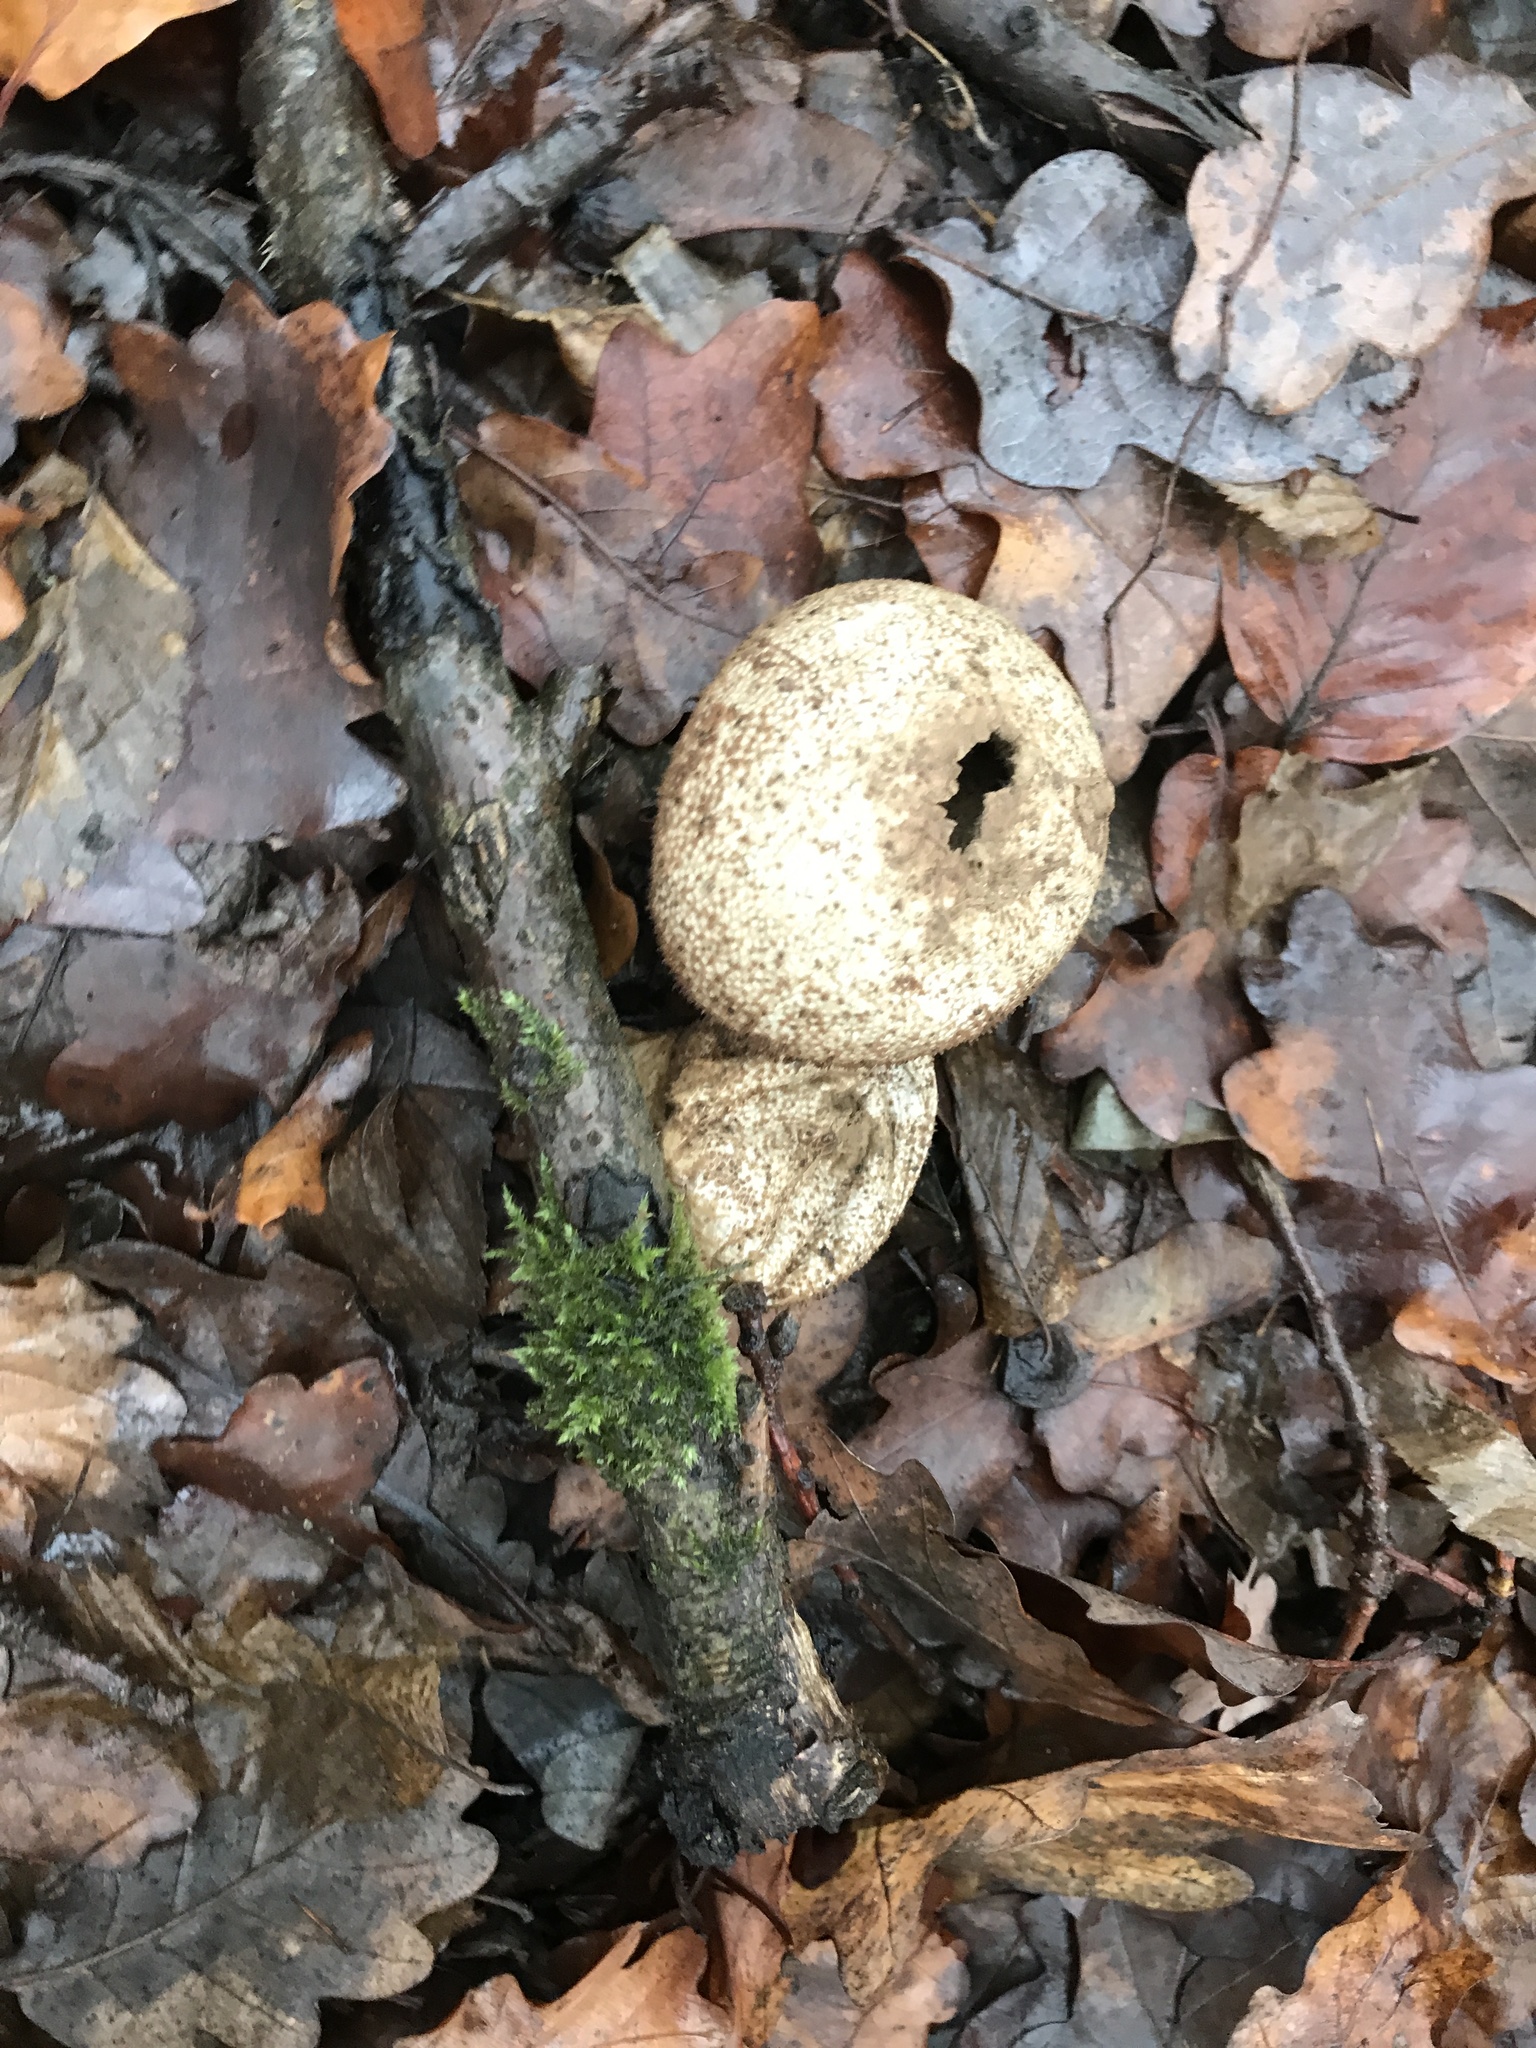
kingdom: Fungi
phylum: Basidiomycota
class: Agaricomycetes
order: Agaricales
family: Lycoperdaceae
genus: Lycoperdon
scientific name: Lycoperdon perlatum
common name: Common puffball
